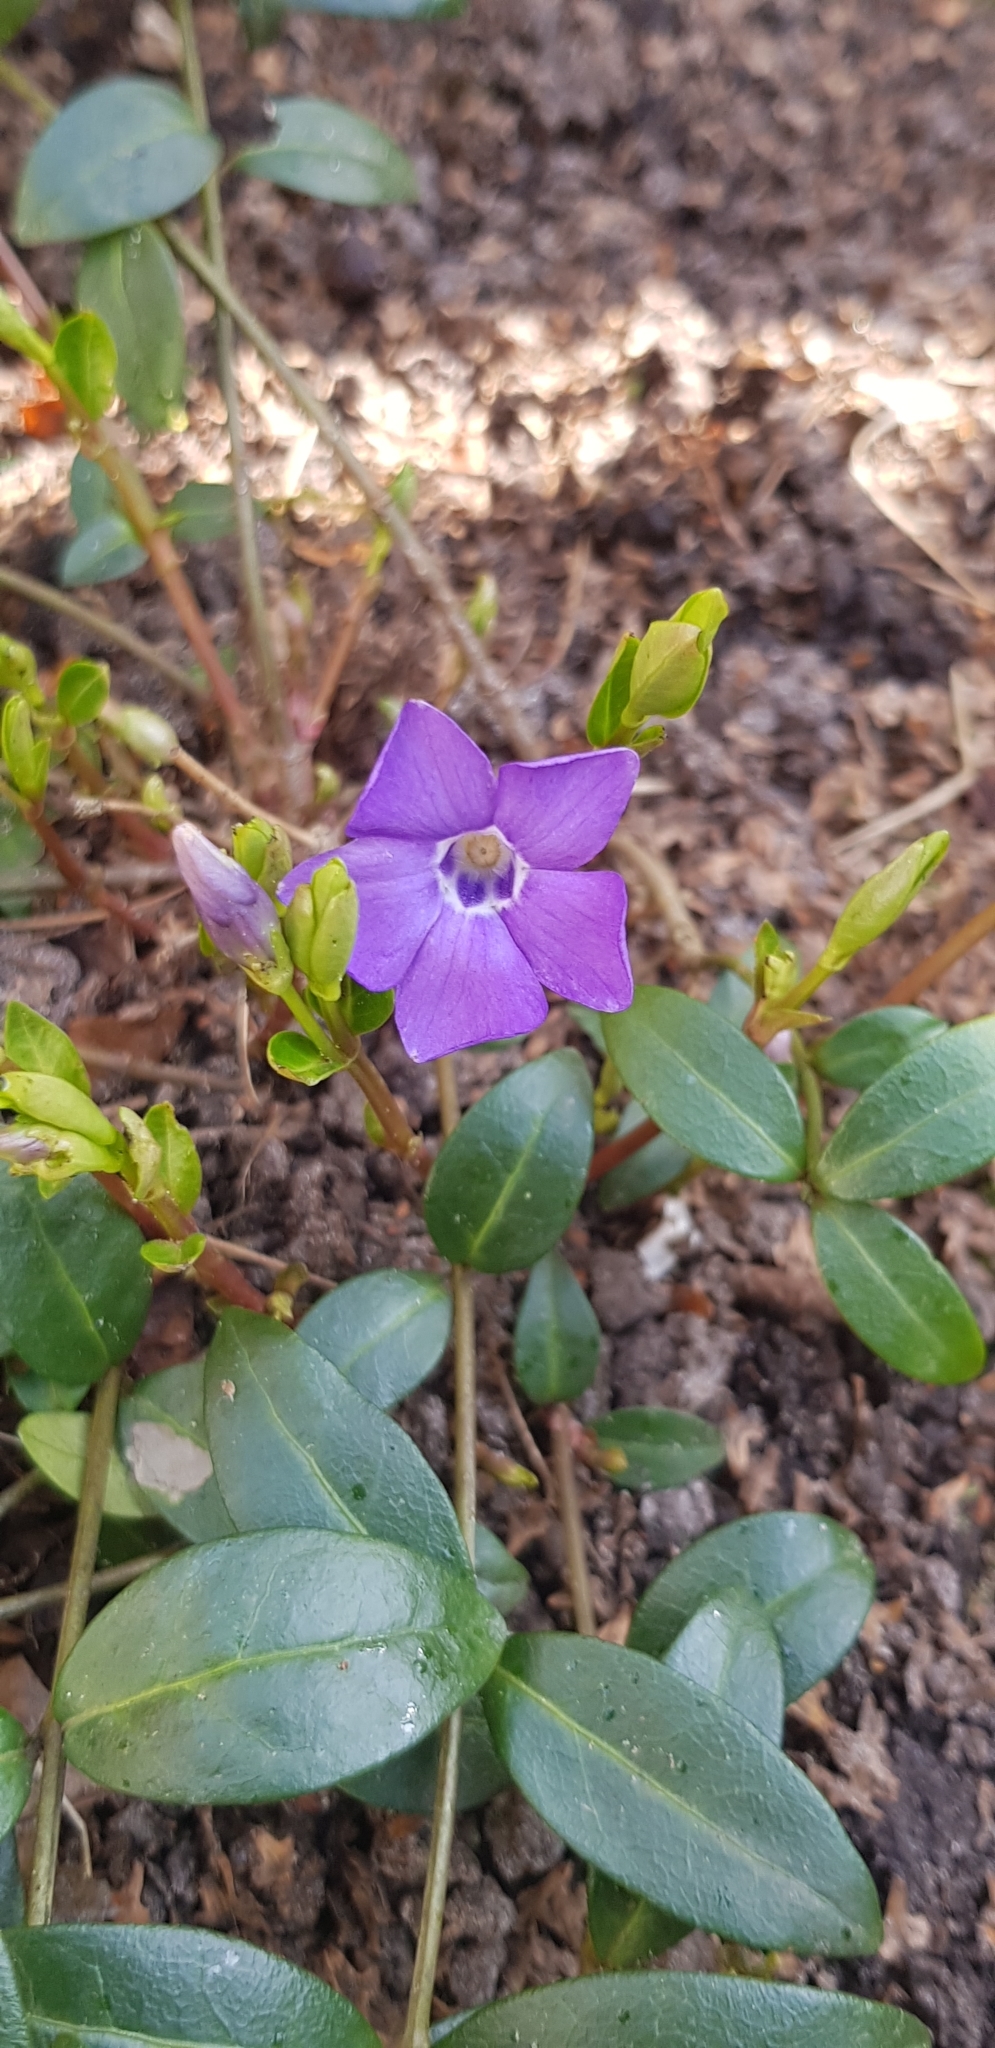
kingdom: Plantae
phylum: Tracheophyta
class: Magnoliopsida
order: Gentianales
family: Apocynaceae
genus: Vinca
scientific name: Vinca minor
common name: Lesser periwinkle
